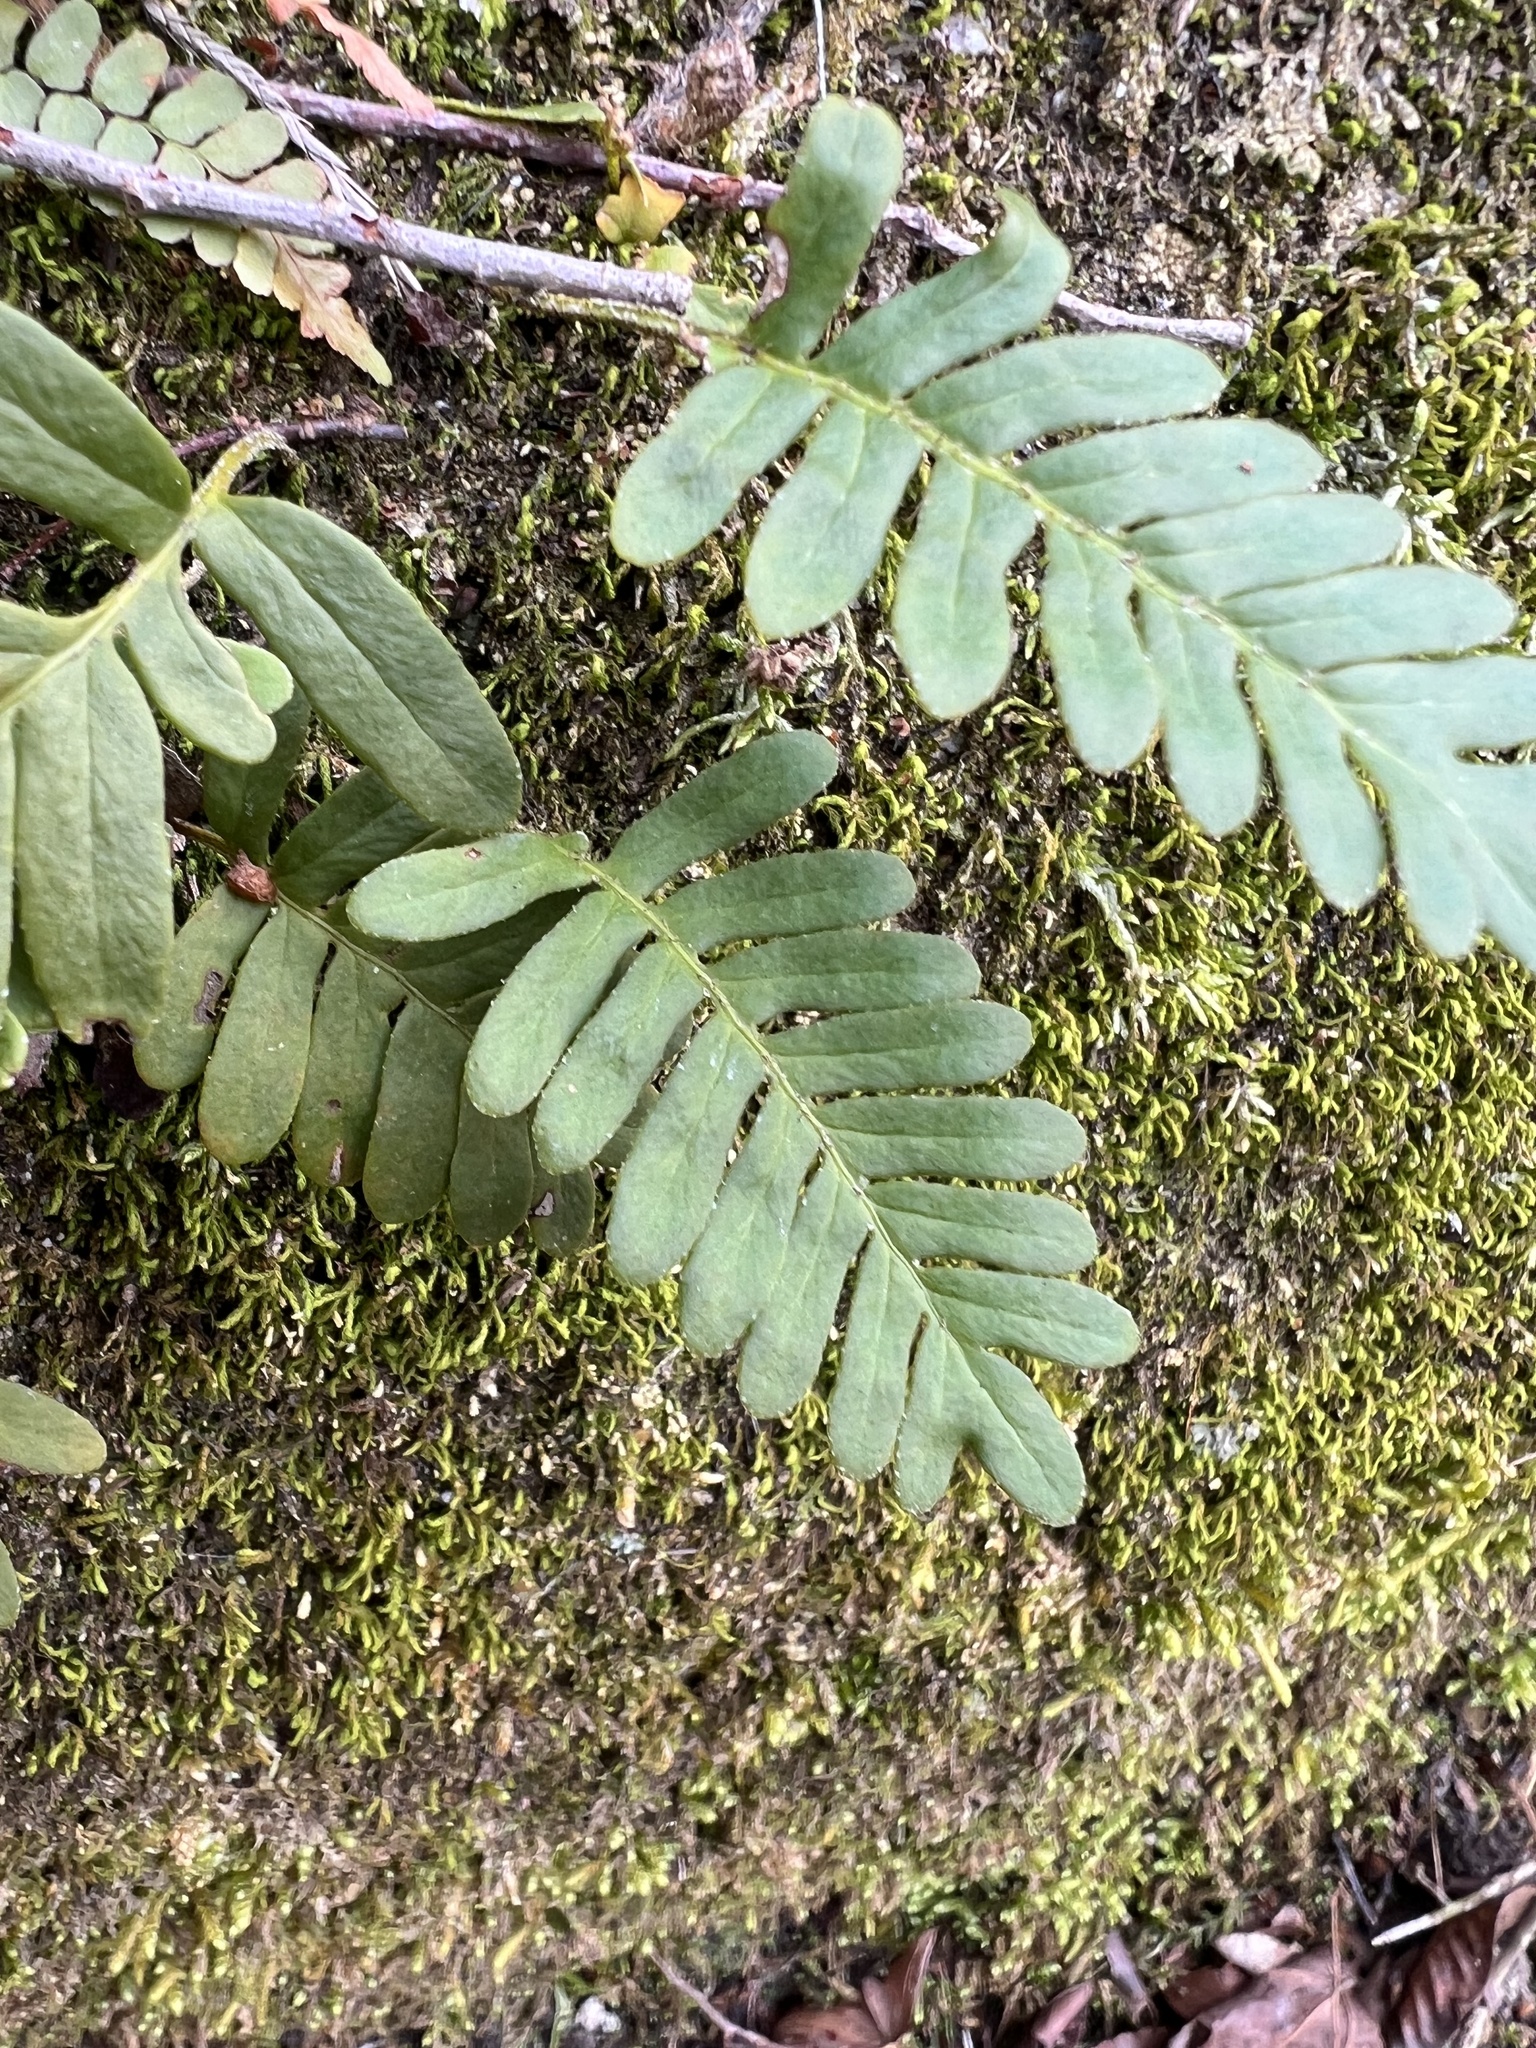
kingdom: Plantae
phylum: Tracheophyta
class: Polypodiopsida
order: Polypodiales
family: Polypodiaceae
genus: Pleopeltis
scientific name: Pleopeltis michauxiana
